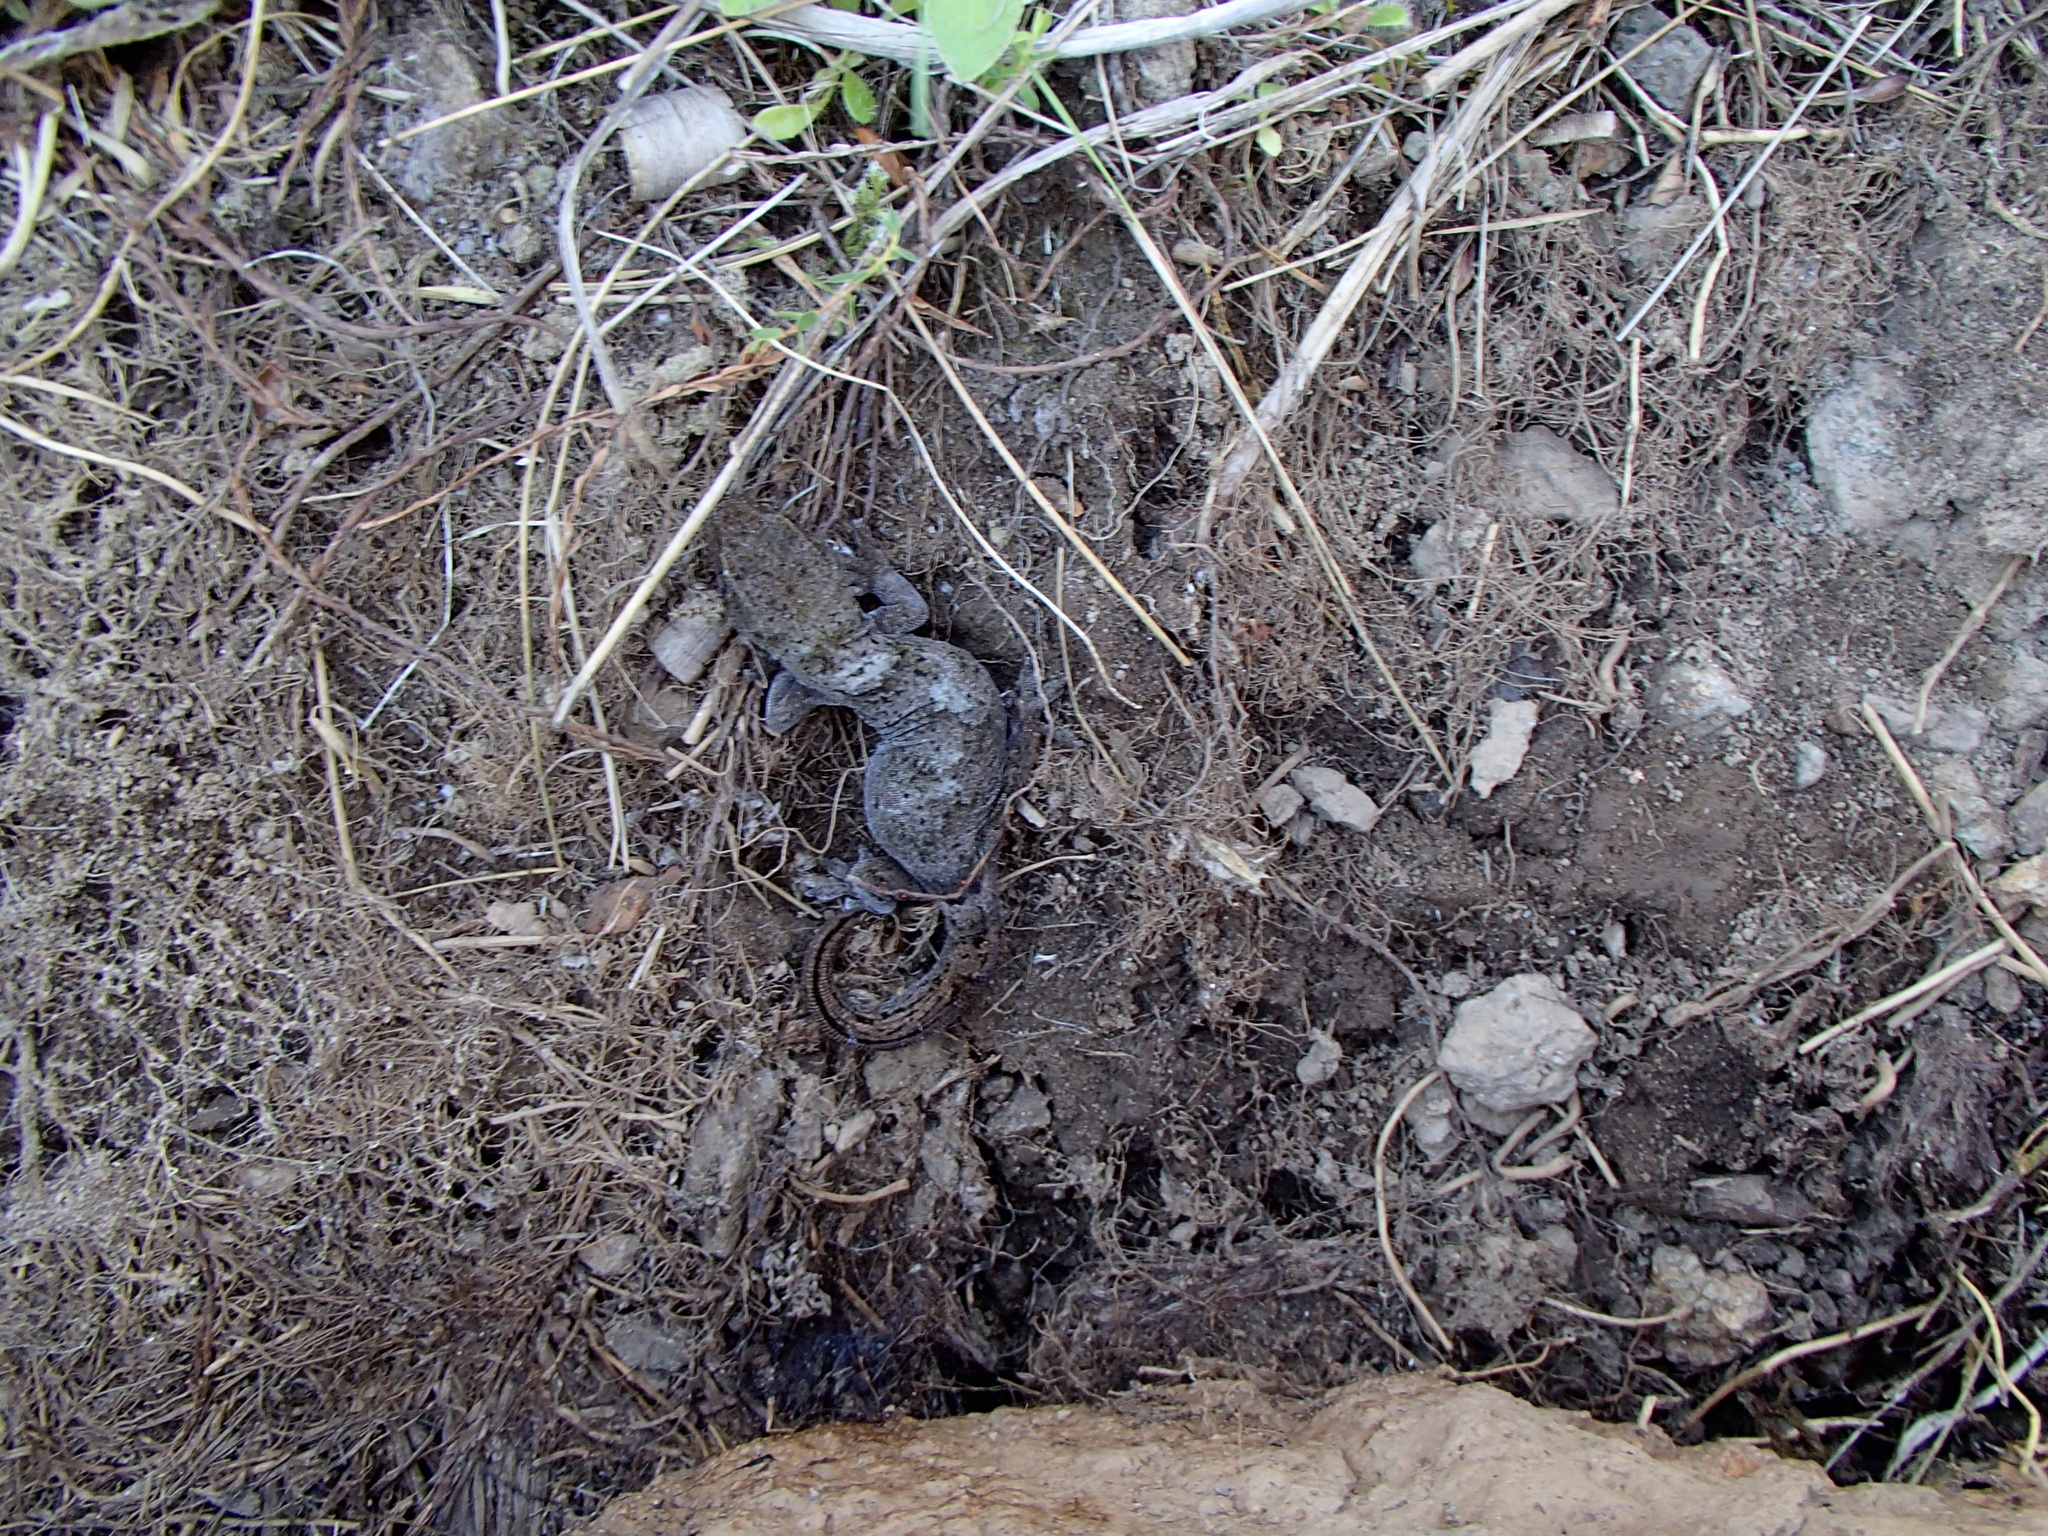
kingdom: Animalia
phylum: Chordata
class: Squamata
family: Diplodactylidae
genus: Woodworthia
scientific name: Woodworthia
